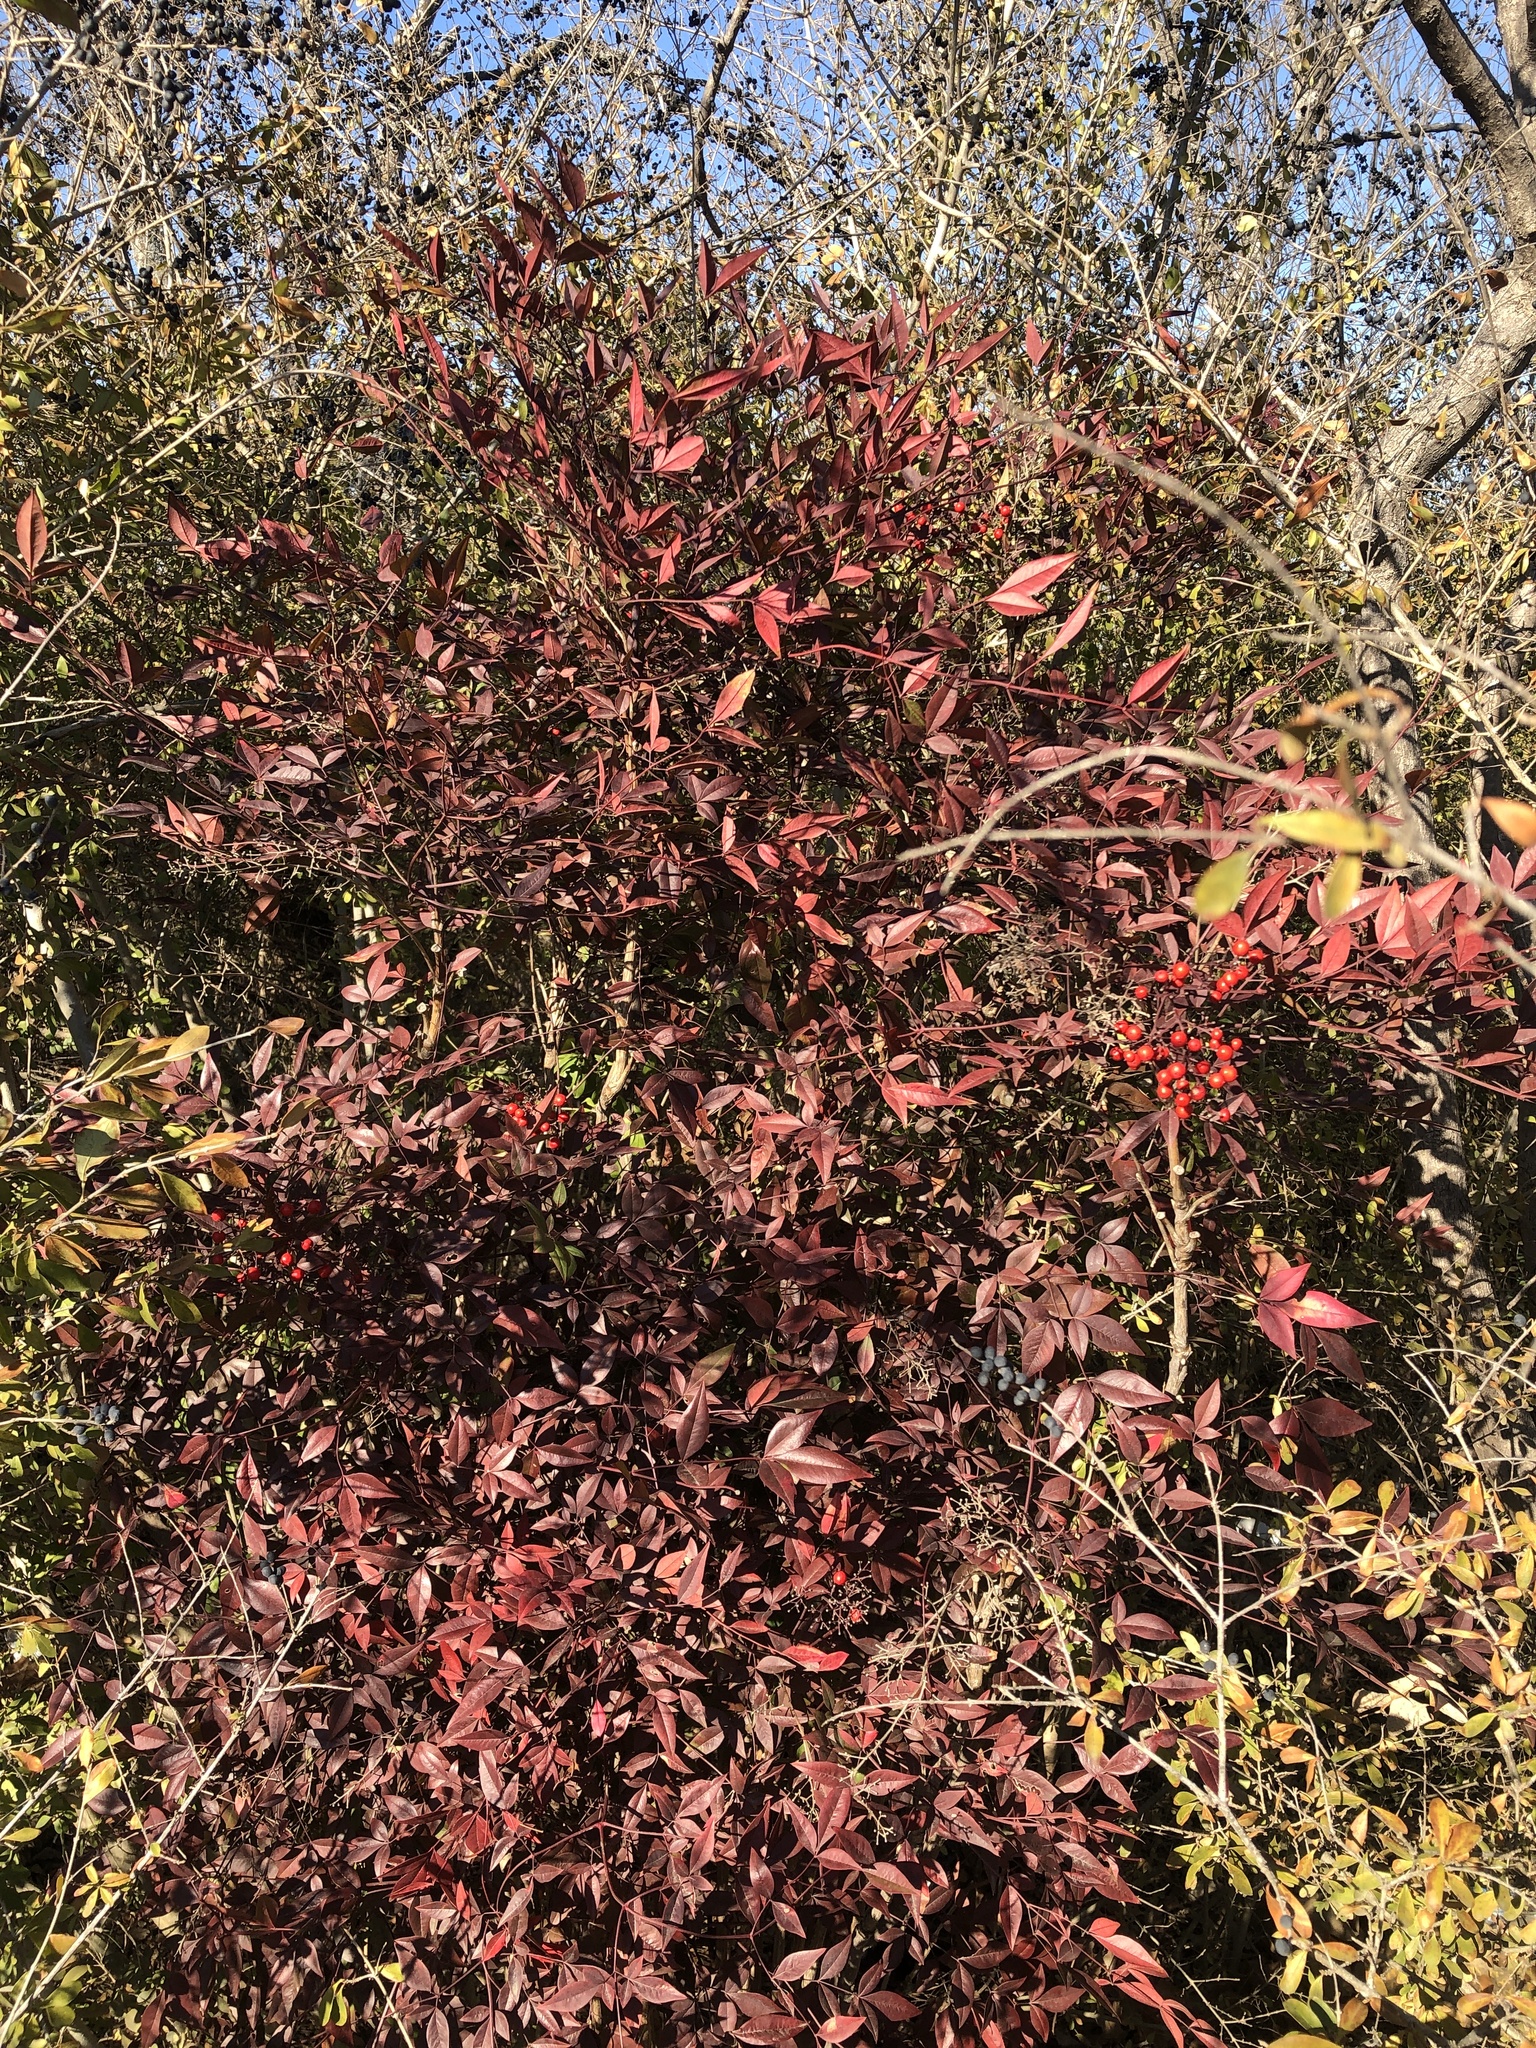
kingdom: Plantae
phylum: Tracheophyta
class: Magnoliopsida
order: Ranunculales
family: Berberidaceae
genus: Nandina
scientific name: Nandina domestica
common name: Sacred bamboo
